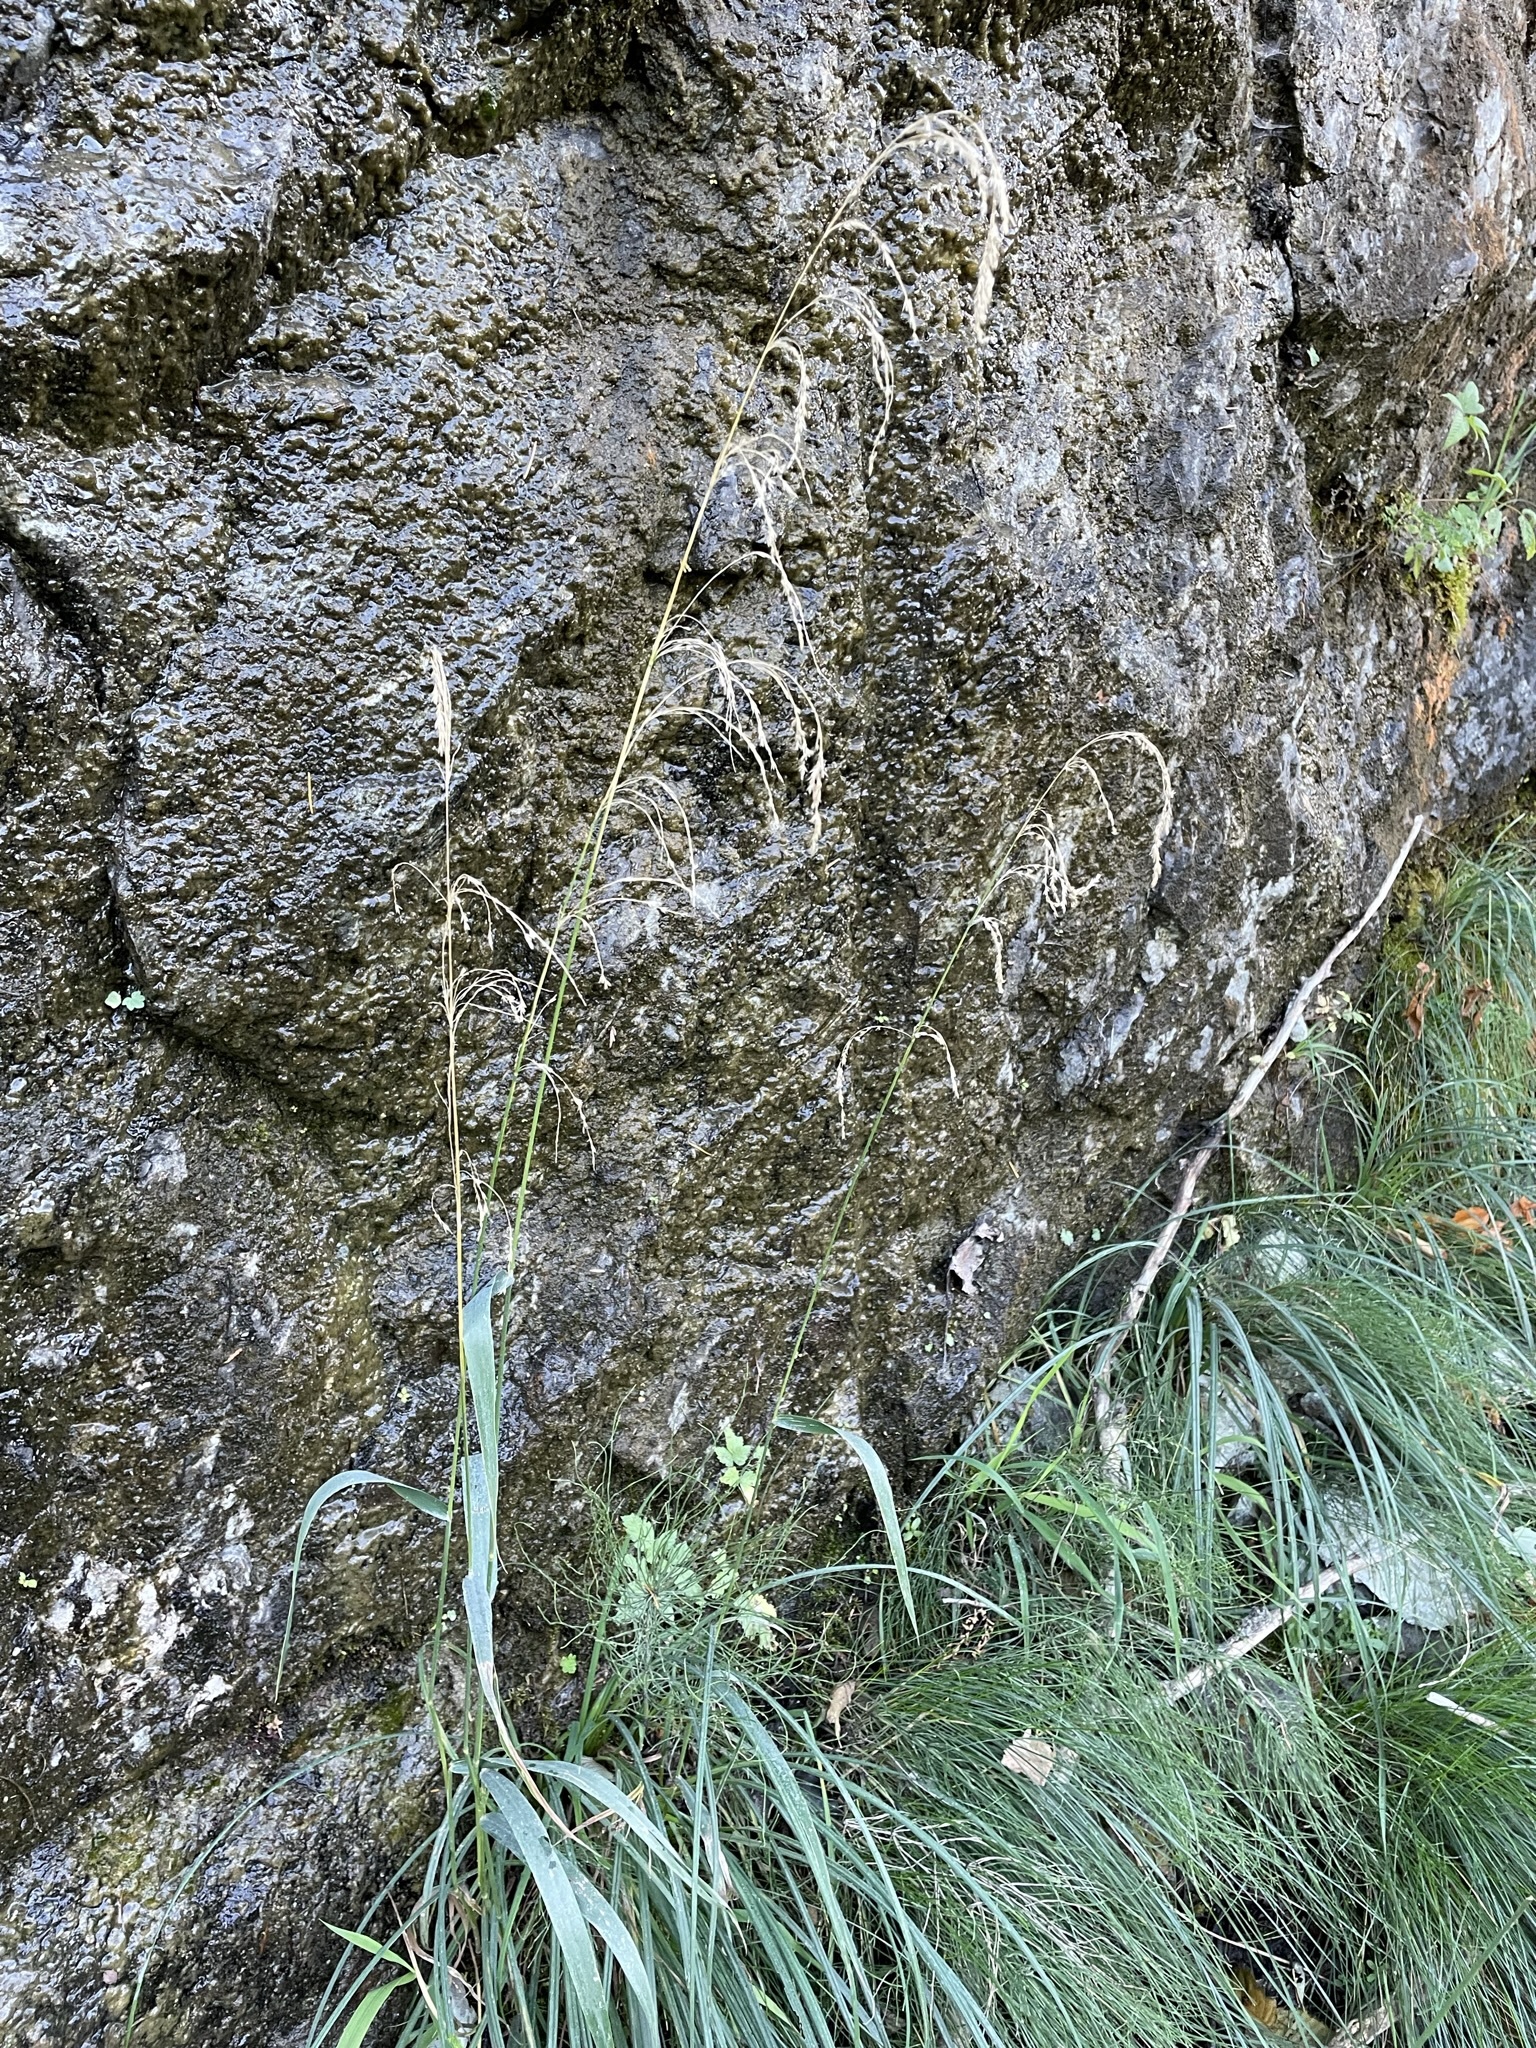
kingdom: Plantae
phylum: Tracheophyta
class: Liliopsida
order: Poales
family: Poaceae
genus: Cinna
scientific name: Cinna latifolia
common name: Drooping woodreed
